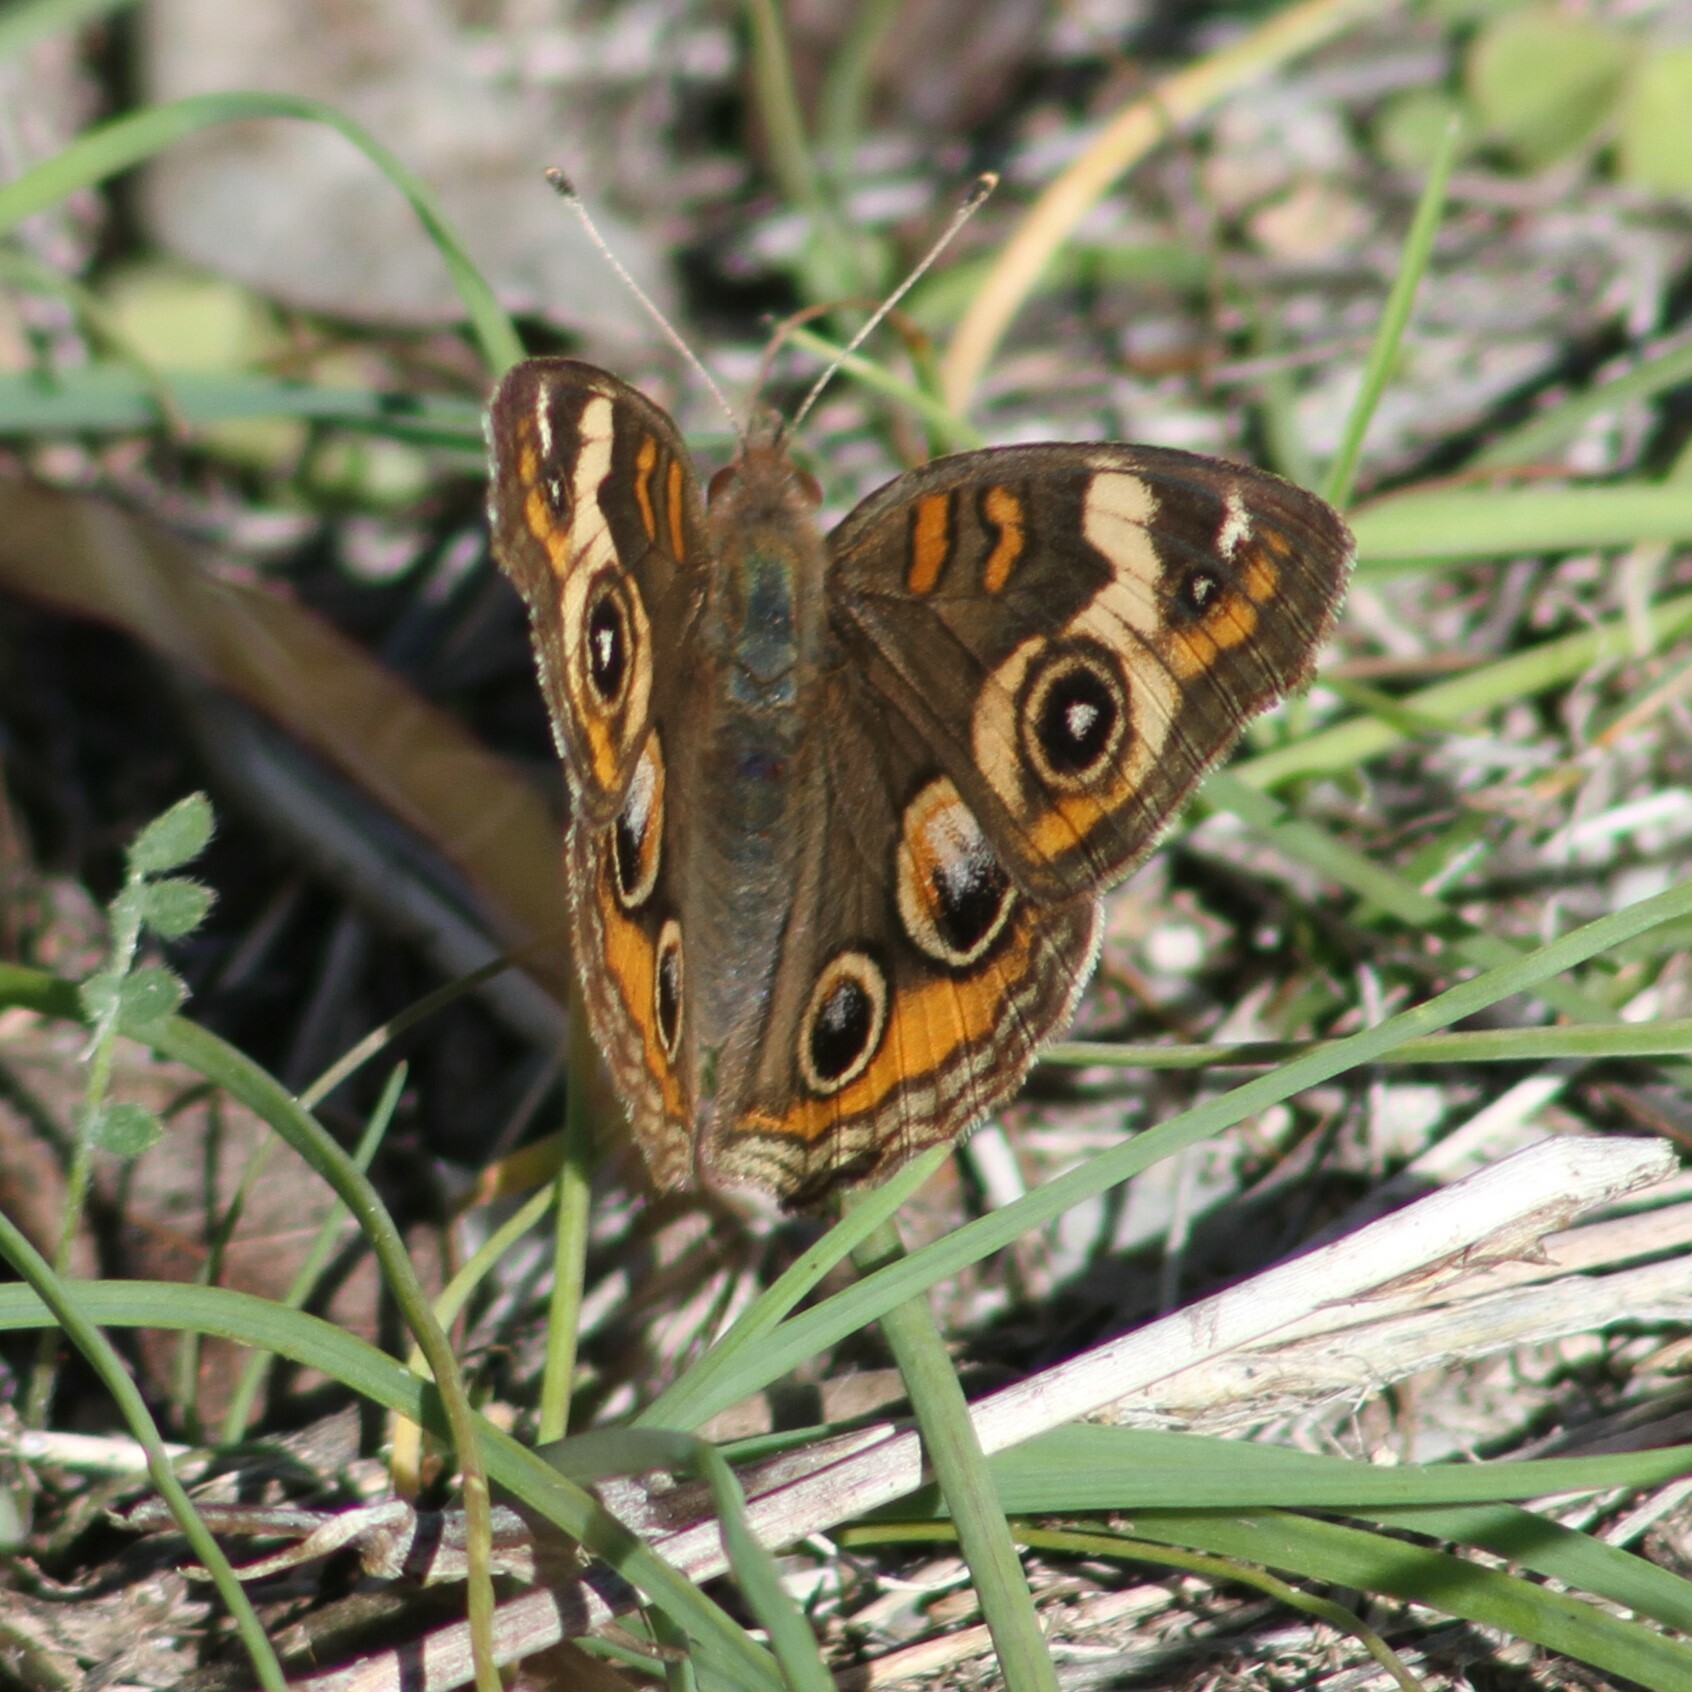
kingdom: Animalia
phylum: Arthropoda
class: Insecta
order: Lepidoptera
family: Nymphalidae
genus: Junonia
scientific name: Junonia coenia
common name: Common buckeye
